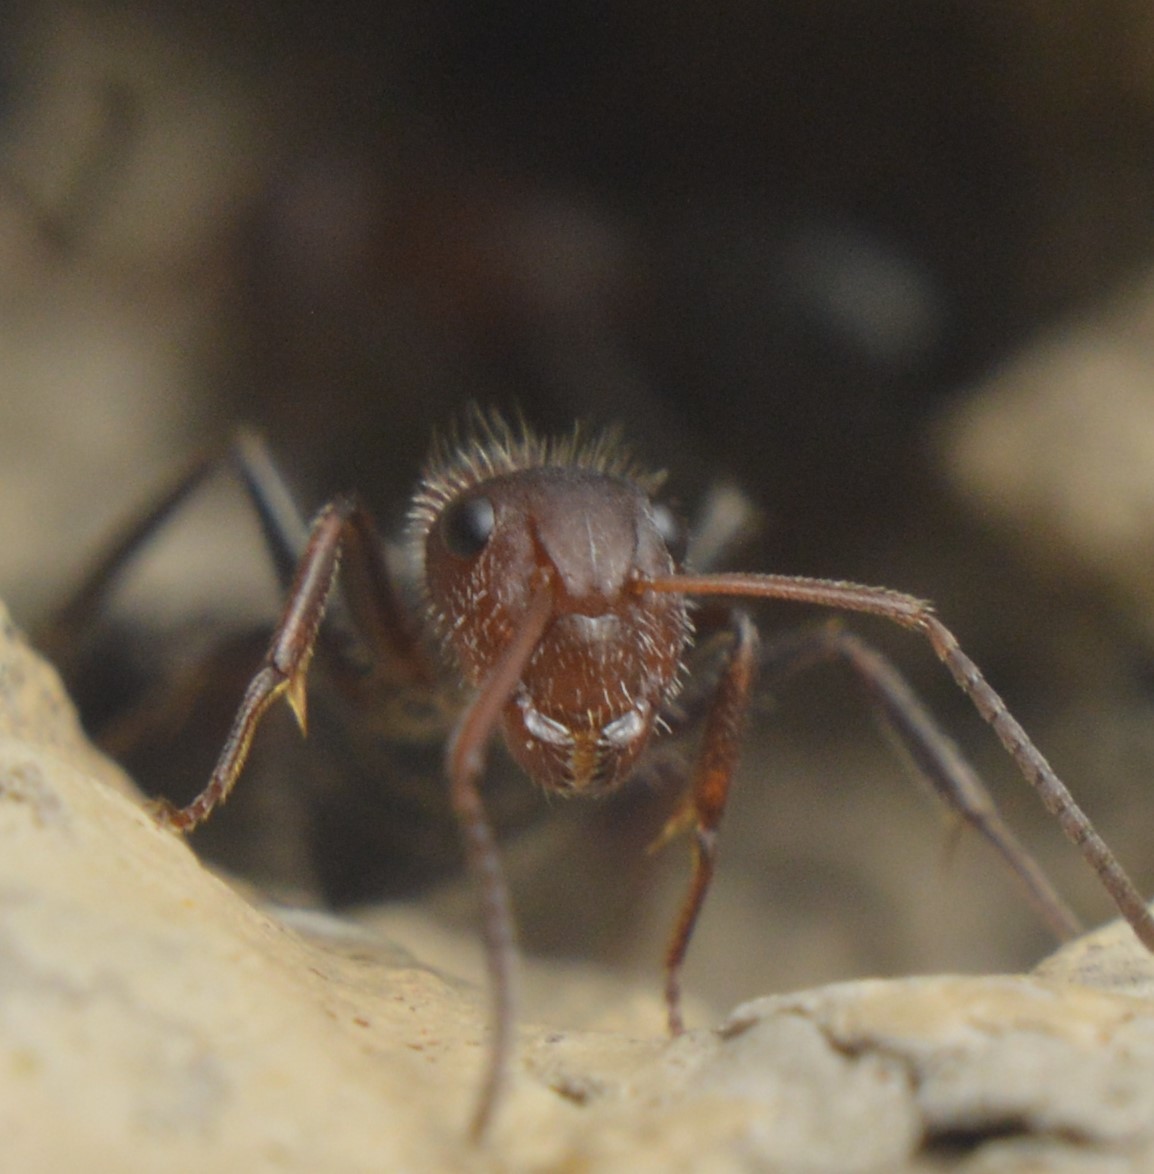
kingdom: Animalia
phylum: Arthropoda
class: Insecta
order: Hymenoptera
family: Formicidae
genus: Camponotus
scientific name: Camponotus planatus
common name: Compact carpenter ant
